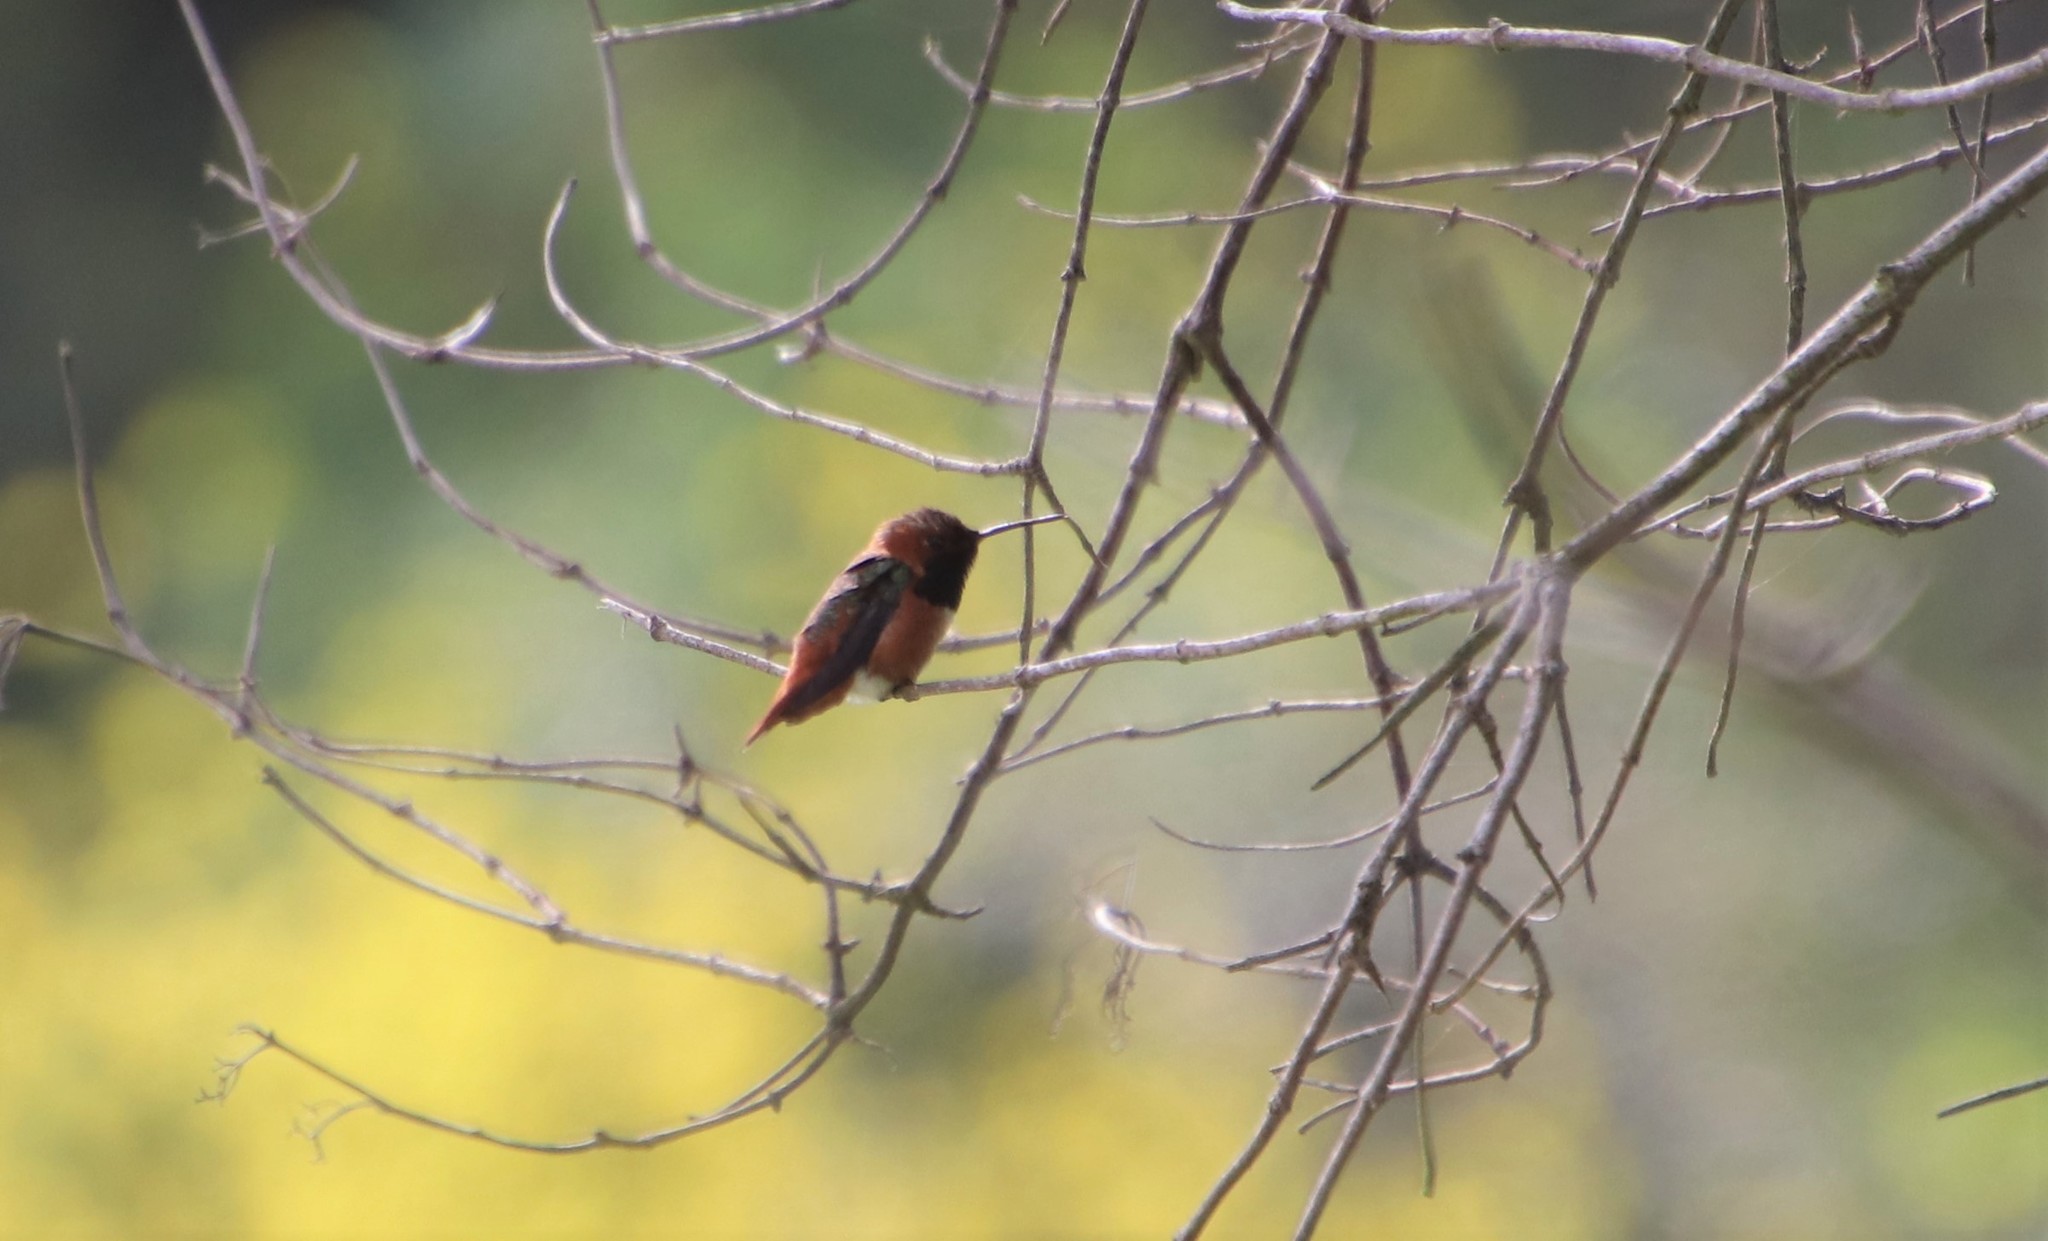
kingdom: Animalia
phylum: Chordata
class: Aves
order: Apodiformes
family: Trochilidae
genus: Selasphorus
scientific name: Selasphorus
